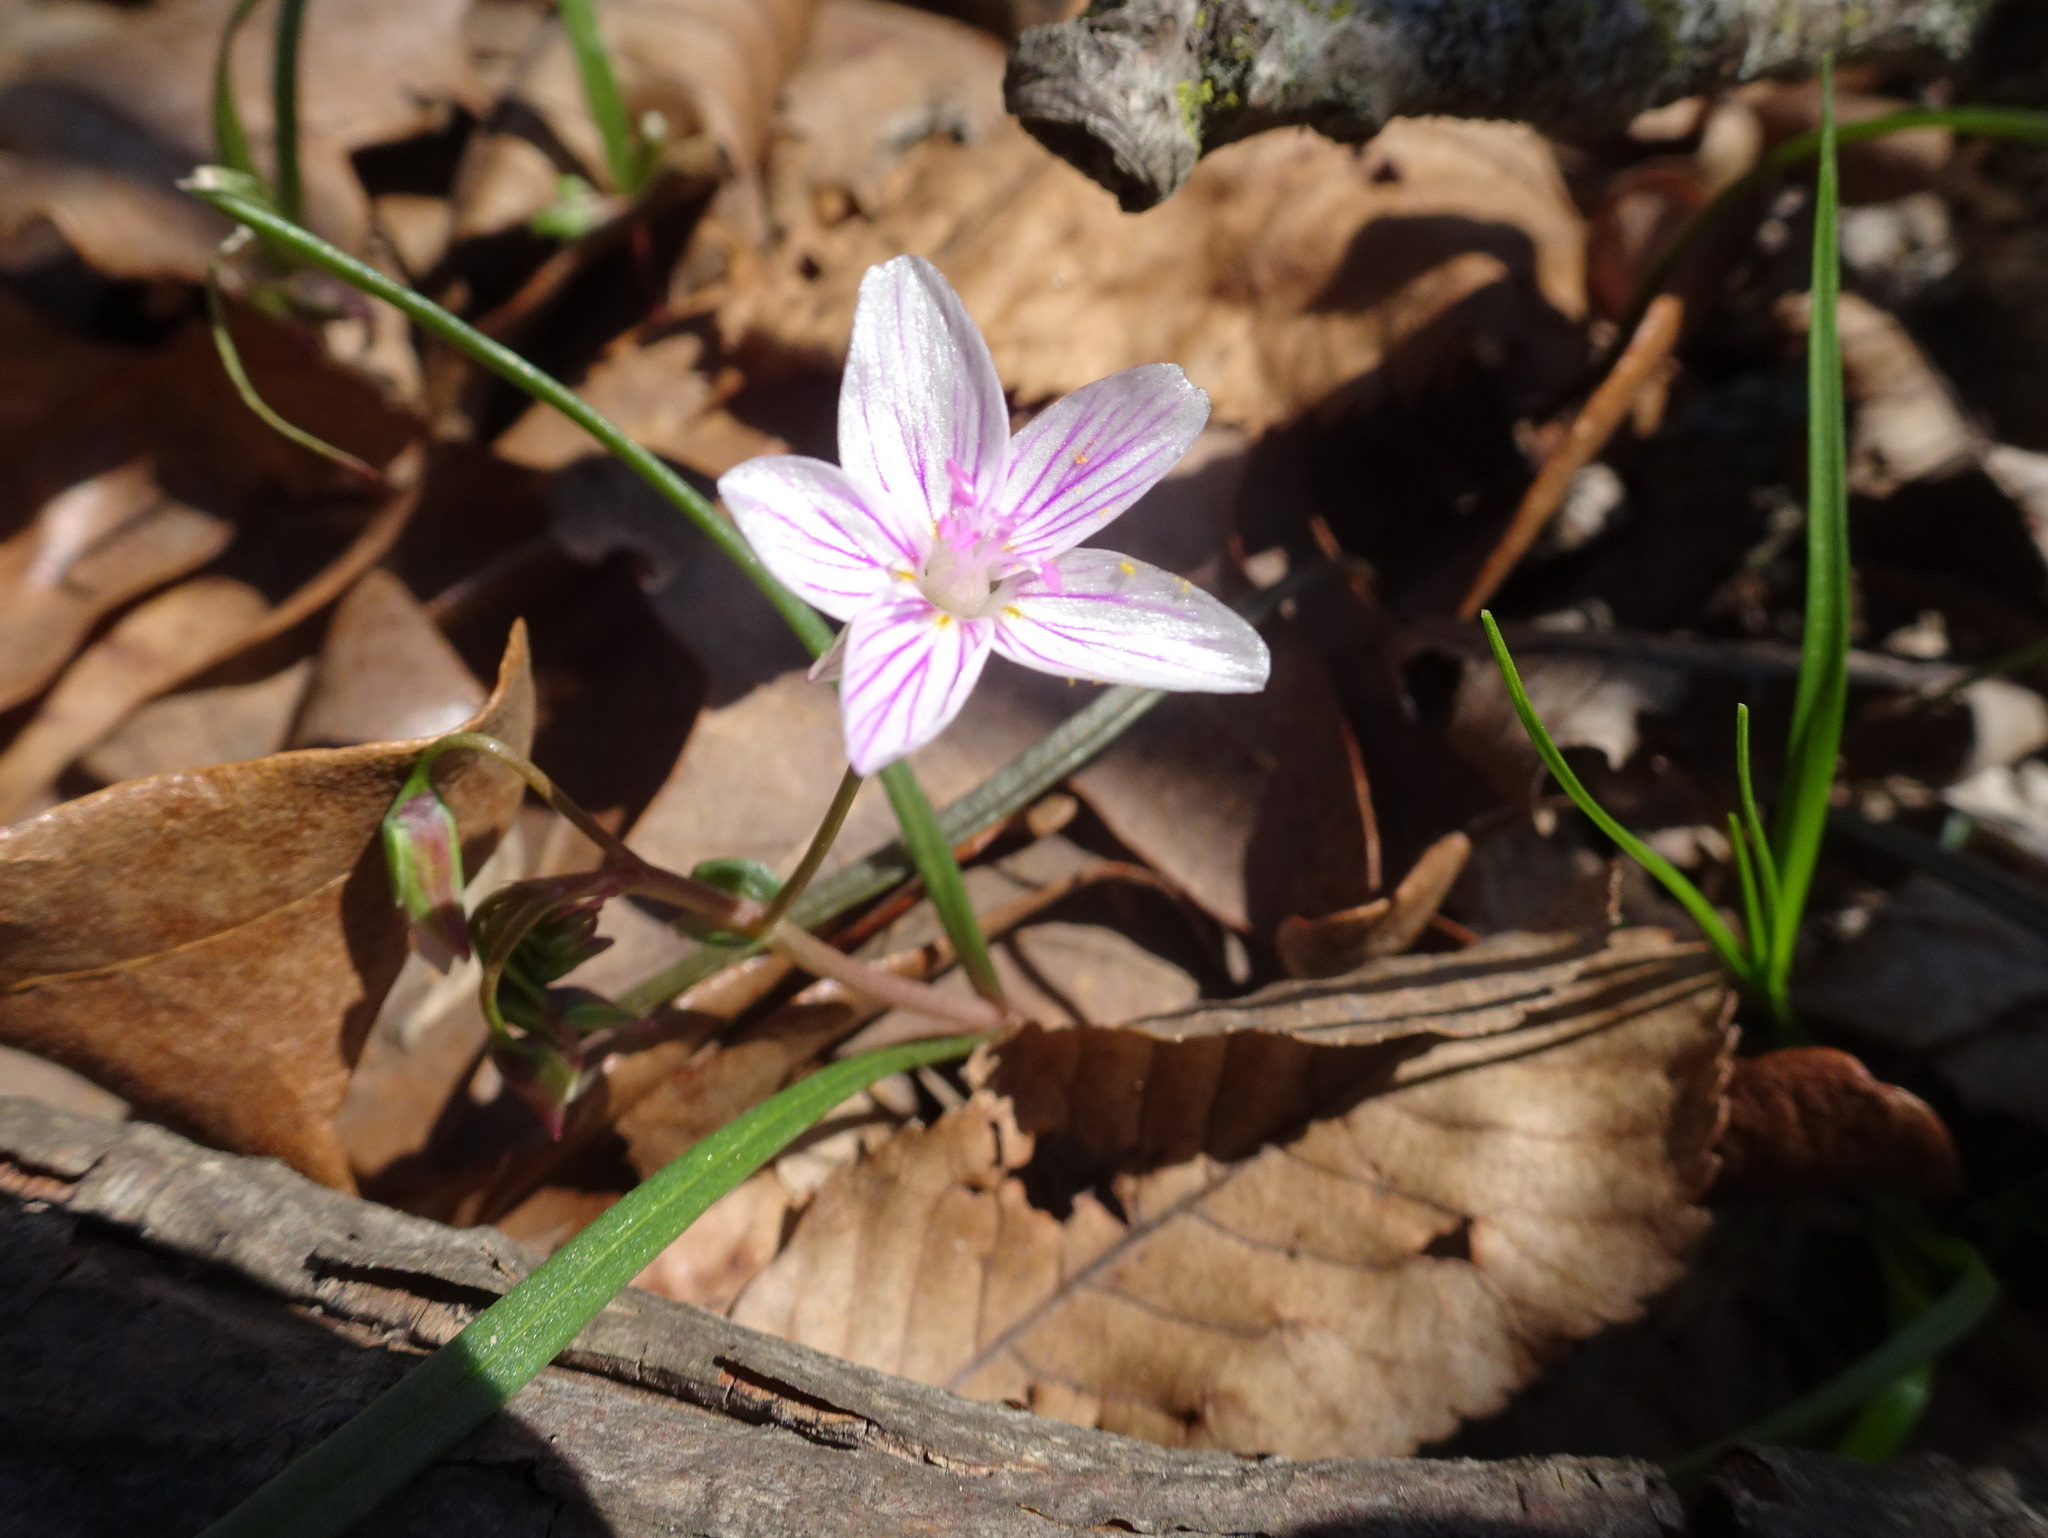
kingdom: Plantae
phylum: Tracheophyta
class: Magnoliopsida
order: Caryophyllales
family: Montiaceae
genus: Claytonia
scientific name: Claytonia virginica
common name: Virginia springbeauty
